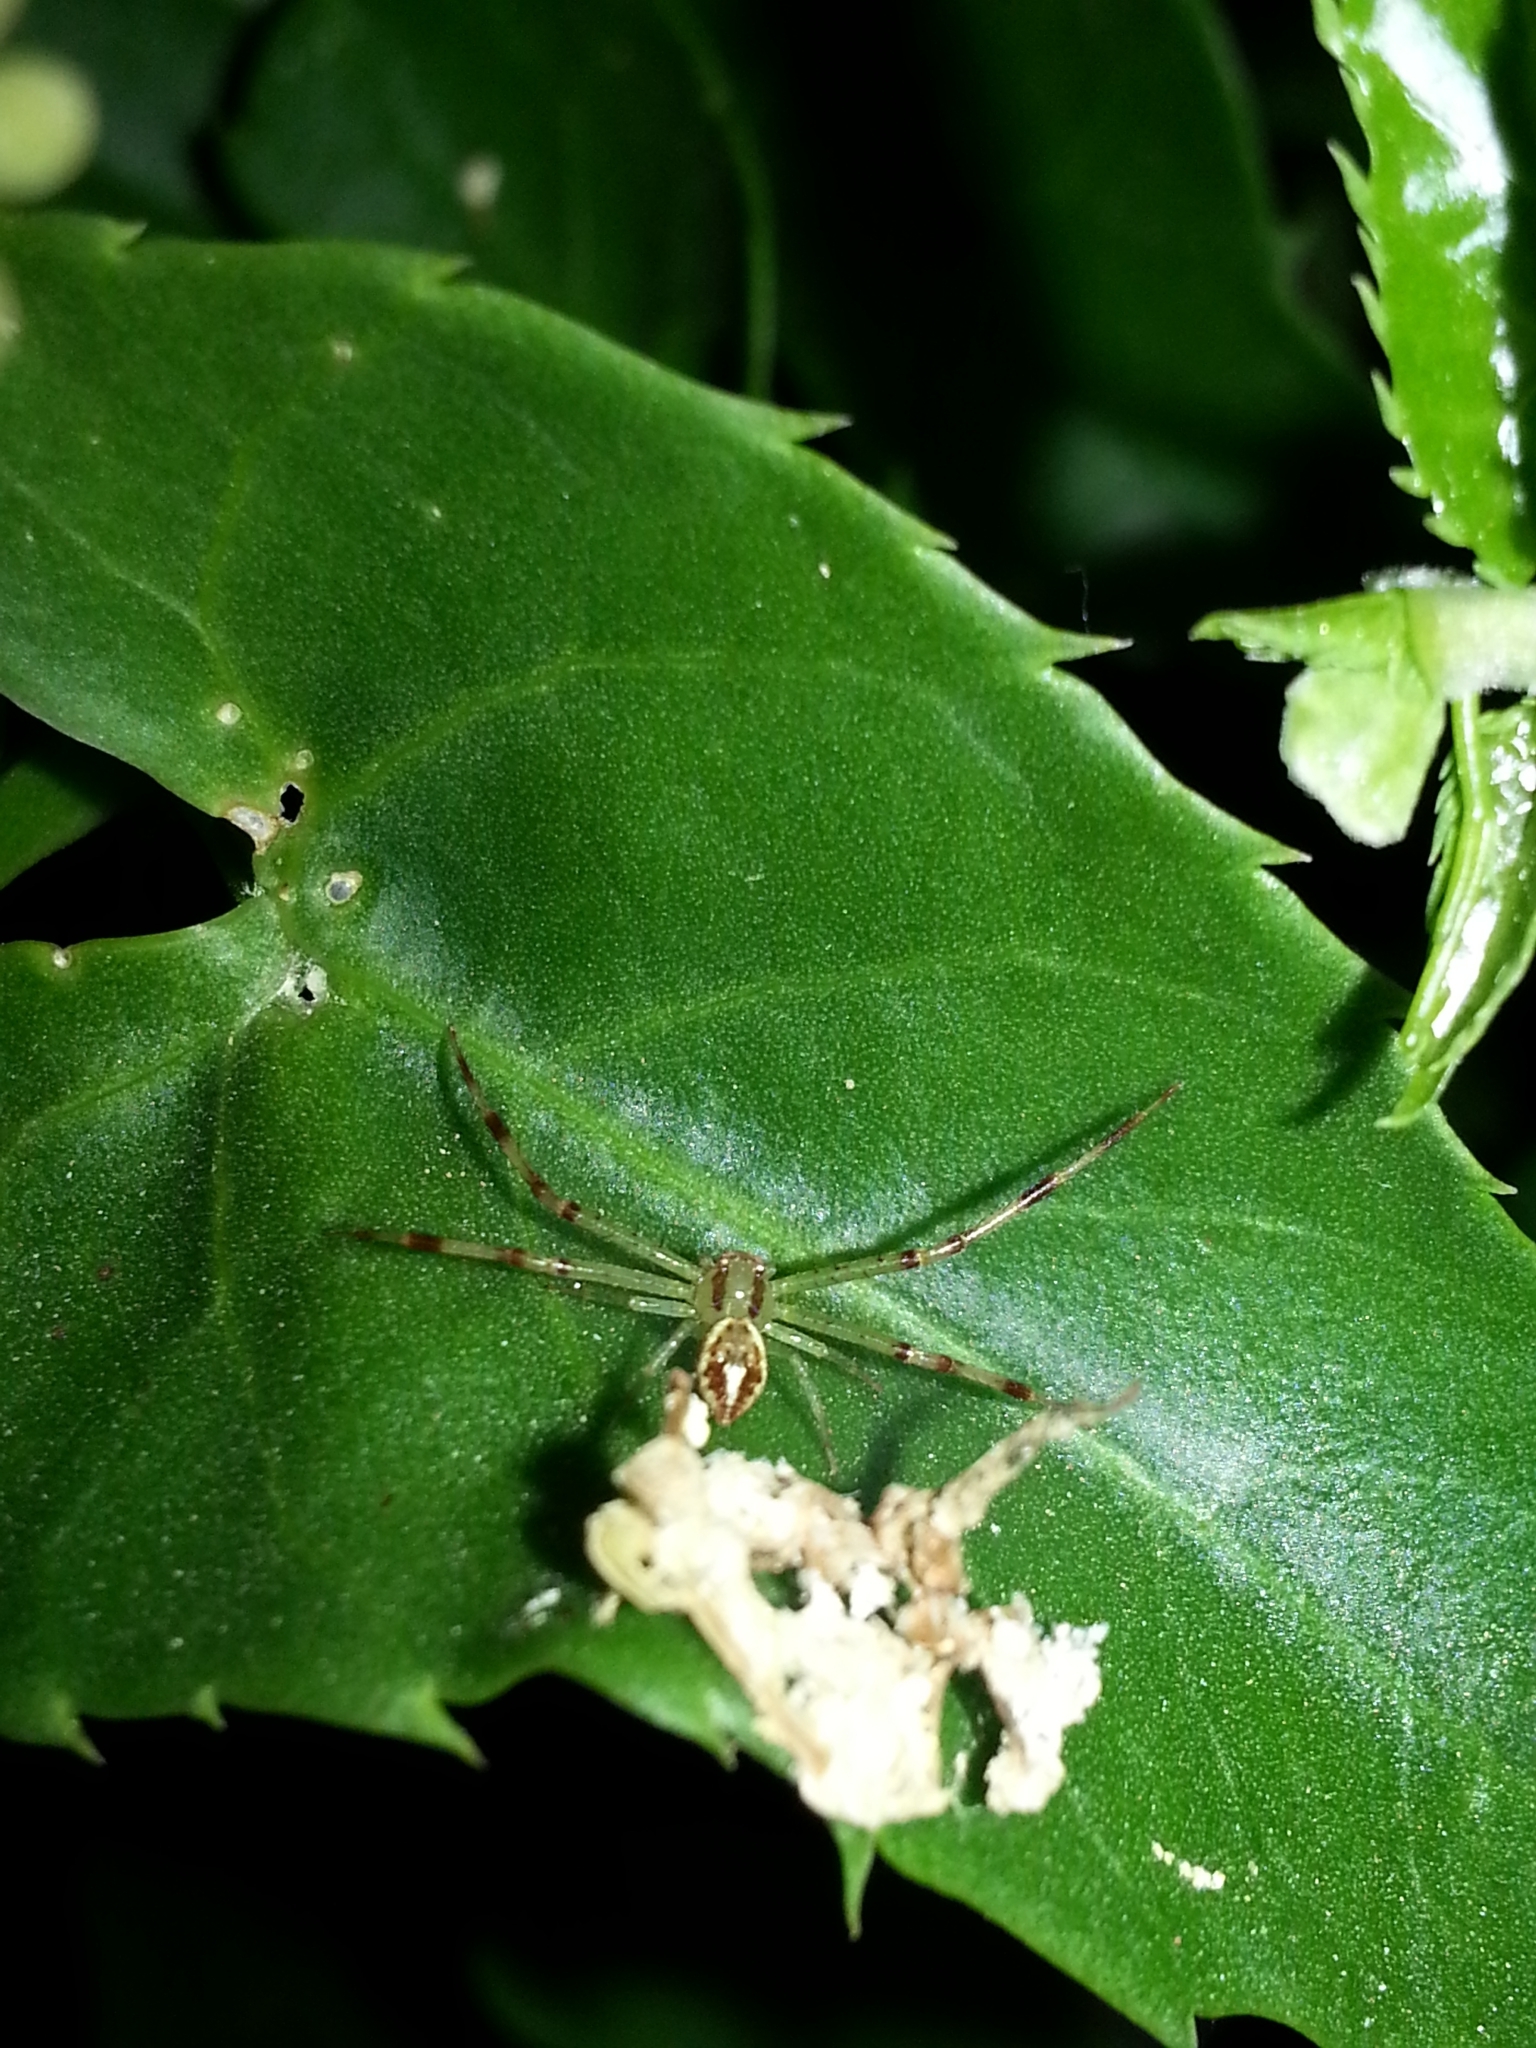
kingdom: Animalia
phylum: Arthropoda
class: Arachnida
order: Araneae
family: Thomisidae
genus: Misumenops
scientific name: Misumenops
